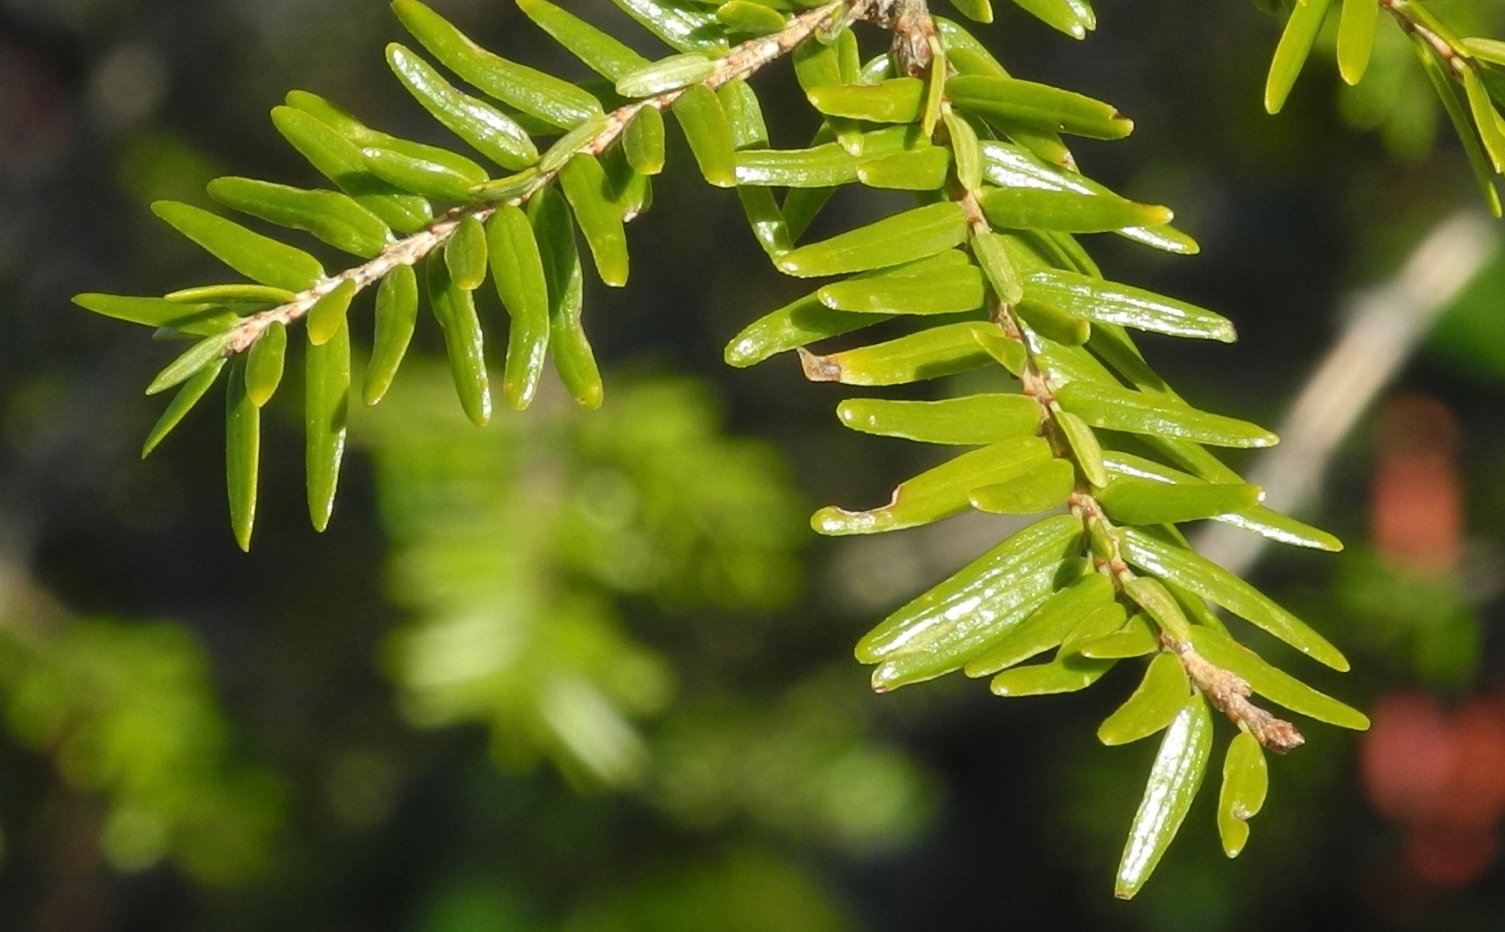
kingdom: Plantae
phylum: Tracheophyta
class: Pinopsida
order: Pinales
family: Pinaceae
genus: Tsuga
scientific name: Tsuga canadensis
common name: Eastern hemlock
